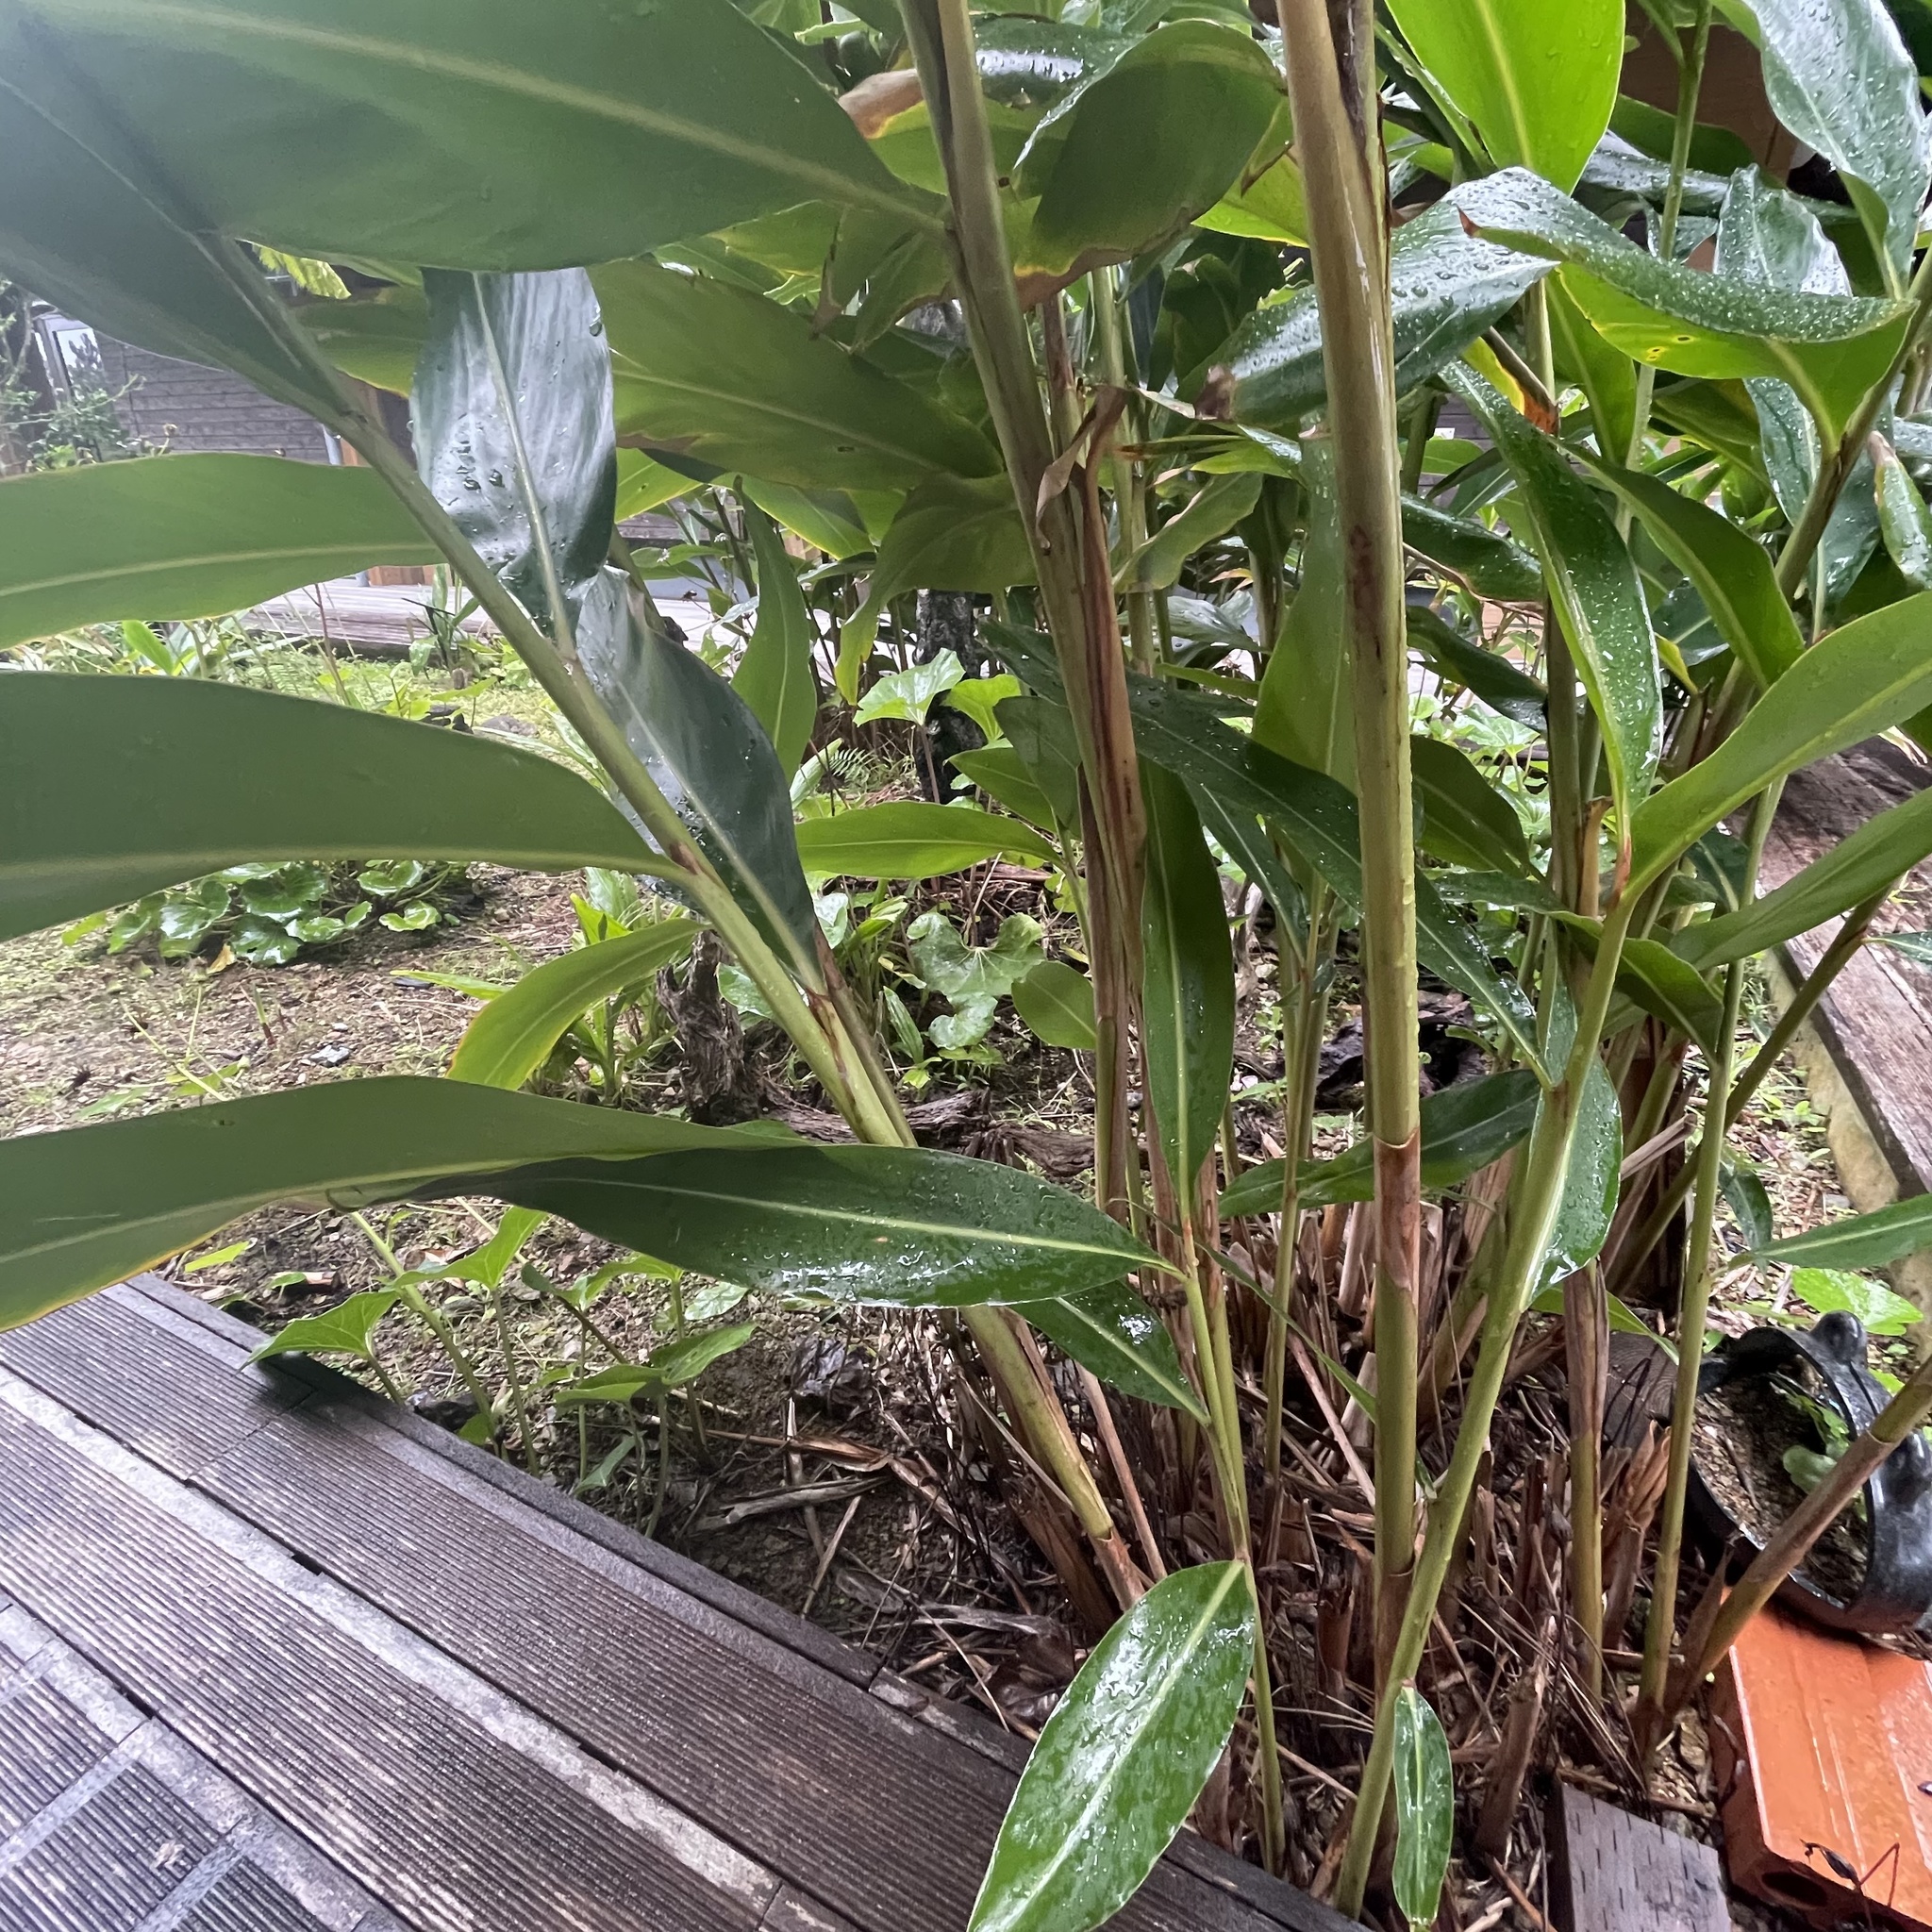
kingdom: Plantae
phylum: Tracheophyta
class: Magnoliopsida
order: Lamiales
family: Orobanchaceae
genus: Aeginetia
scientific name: Aeginetia indica
